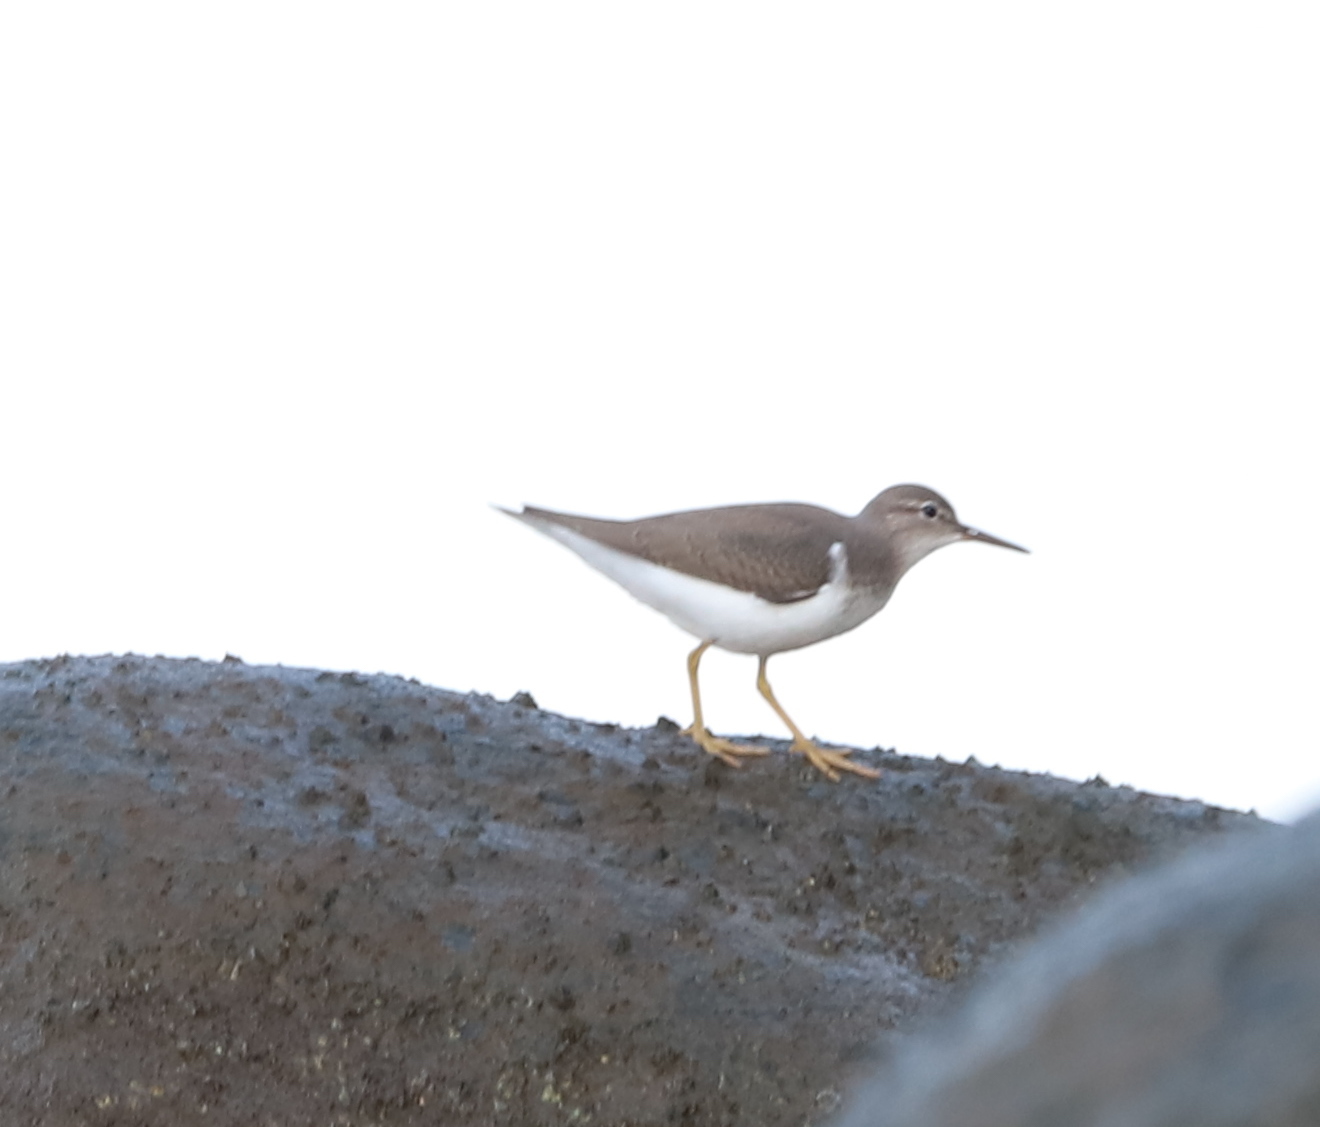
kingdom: Animalia
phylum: Chordata
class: Aves
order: Charadriiformes
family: Scolopacidae
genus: Actitis
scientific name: Actitis macularius
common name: Spotted sandpiper
